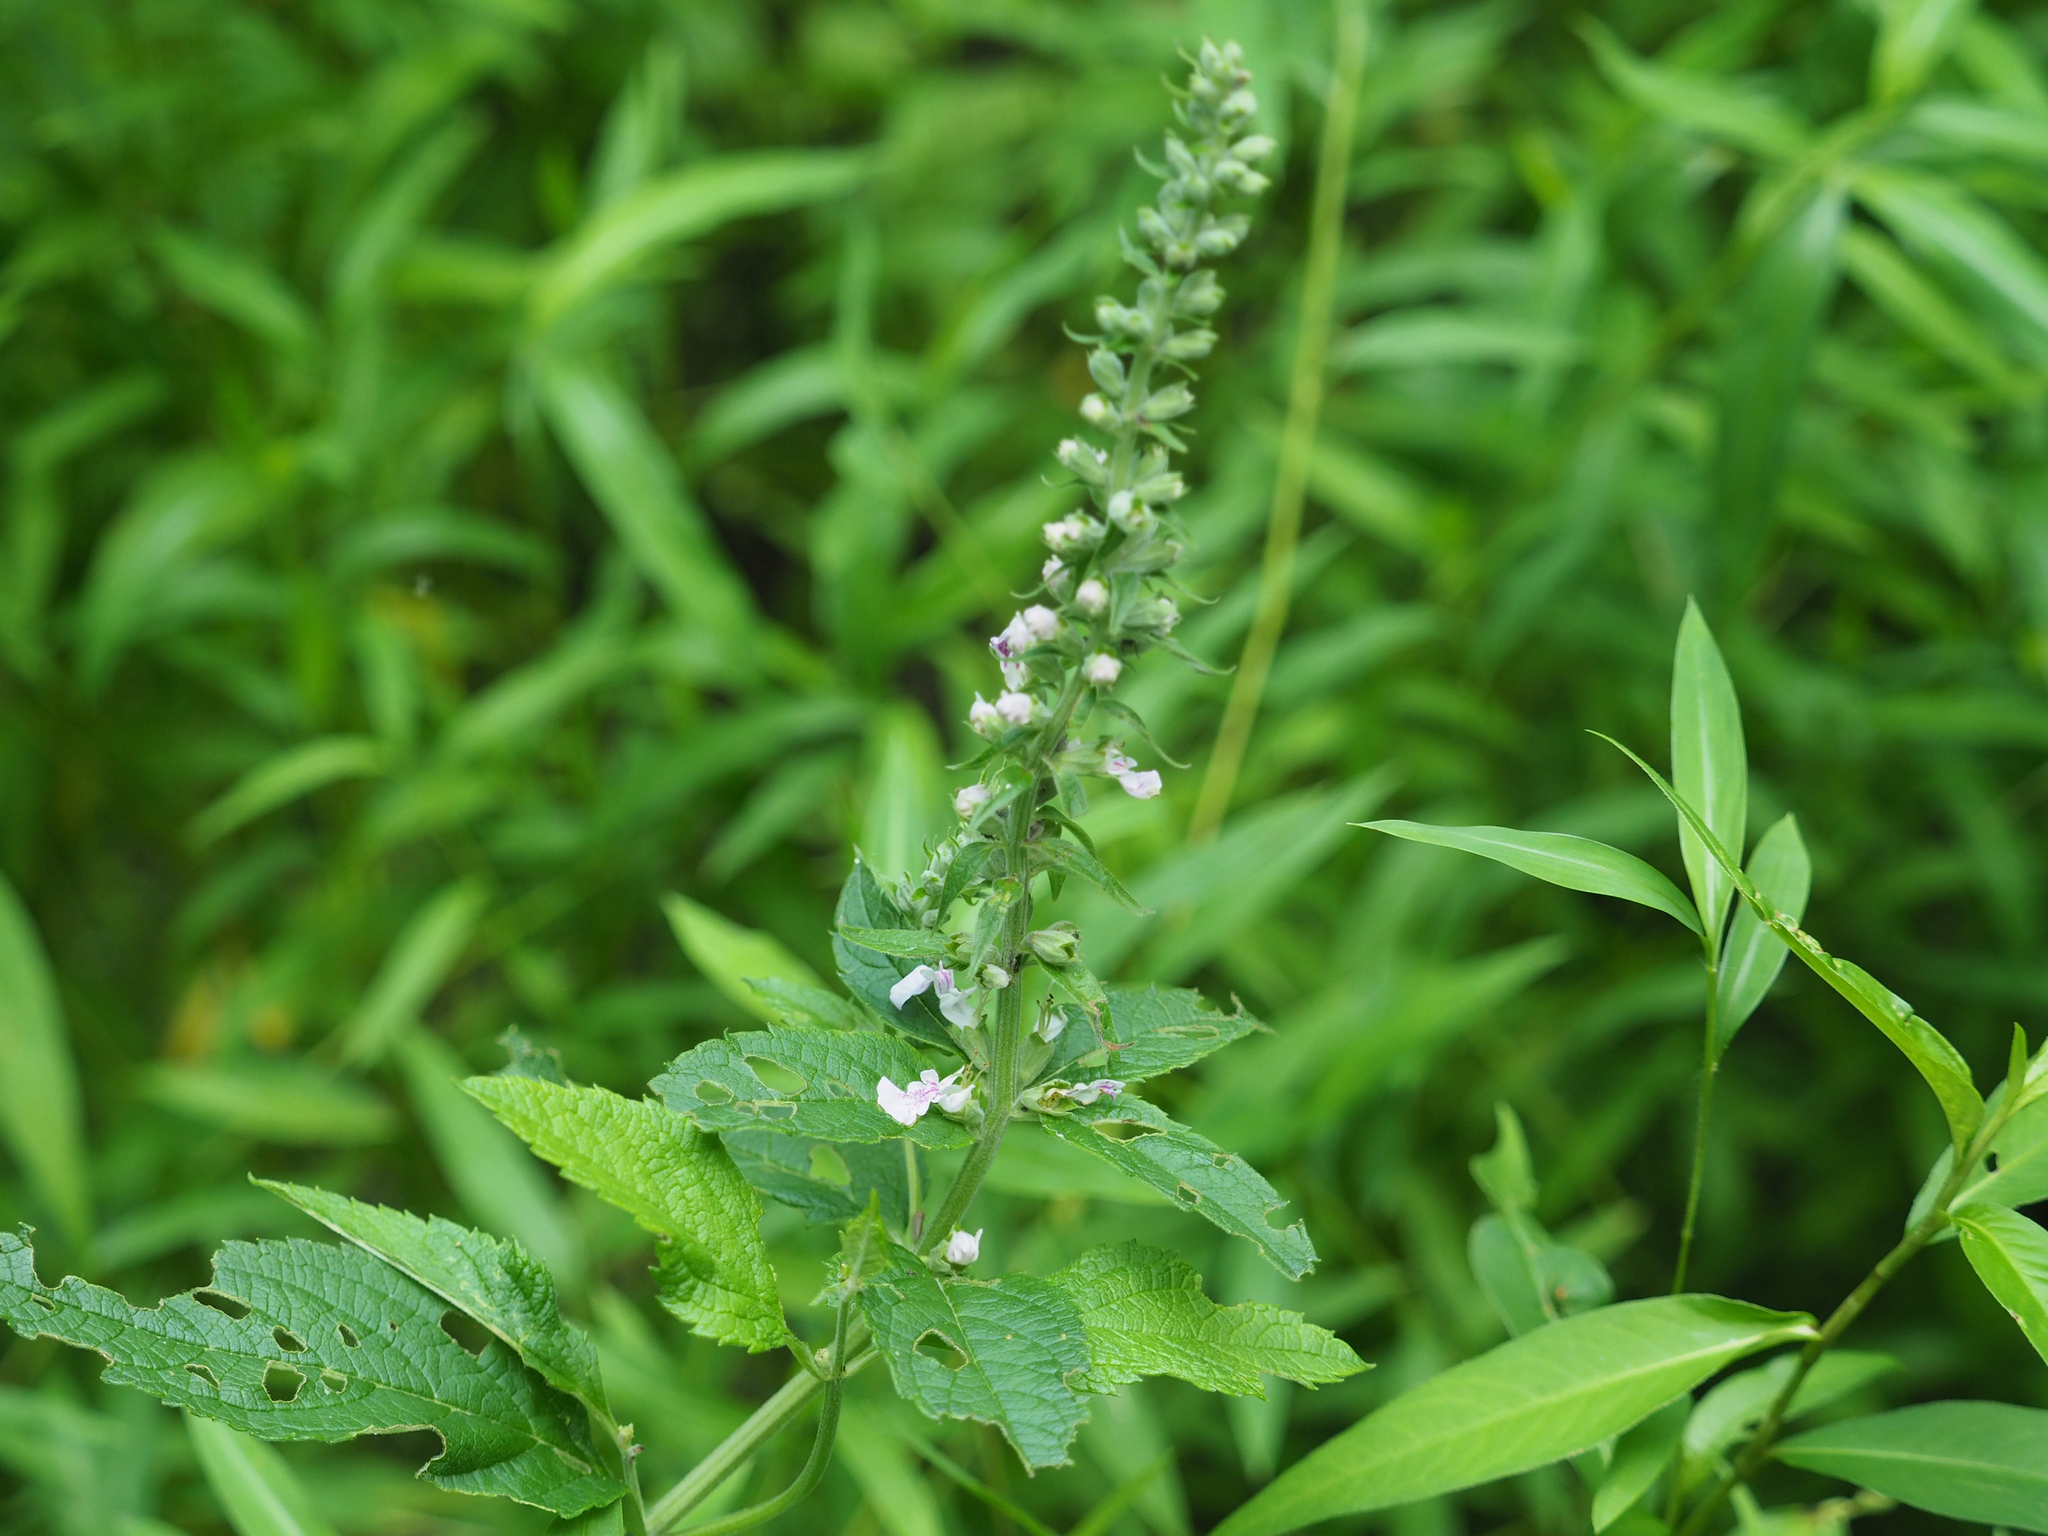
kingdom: Plantae
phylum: Tracheophyta
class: Magnoliopsida
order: Lamiales
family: Lamiaceae
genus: Teucrium
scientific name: Teucrium canadense
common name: American germander
